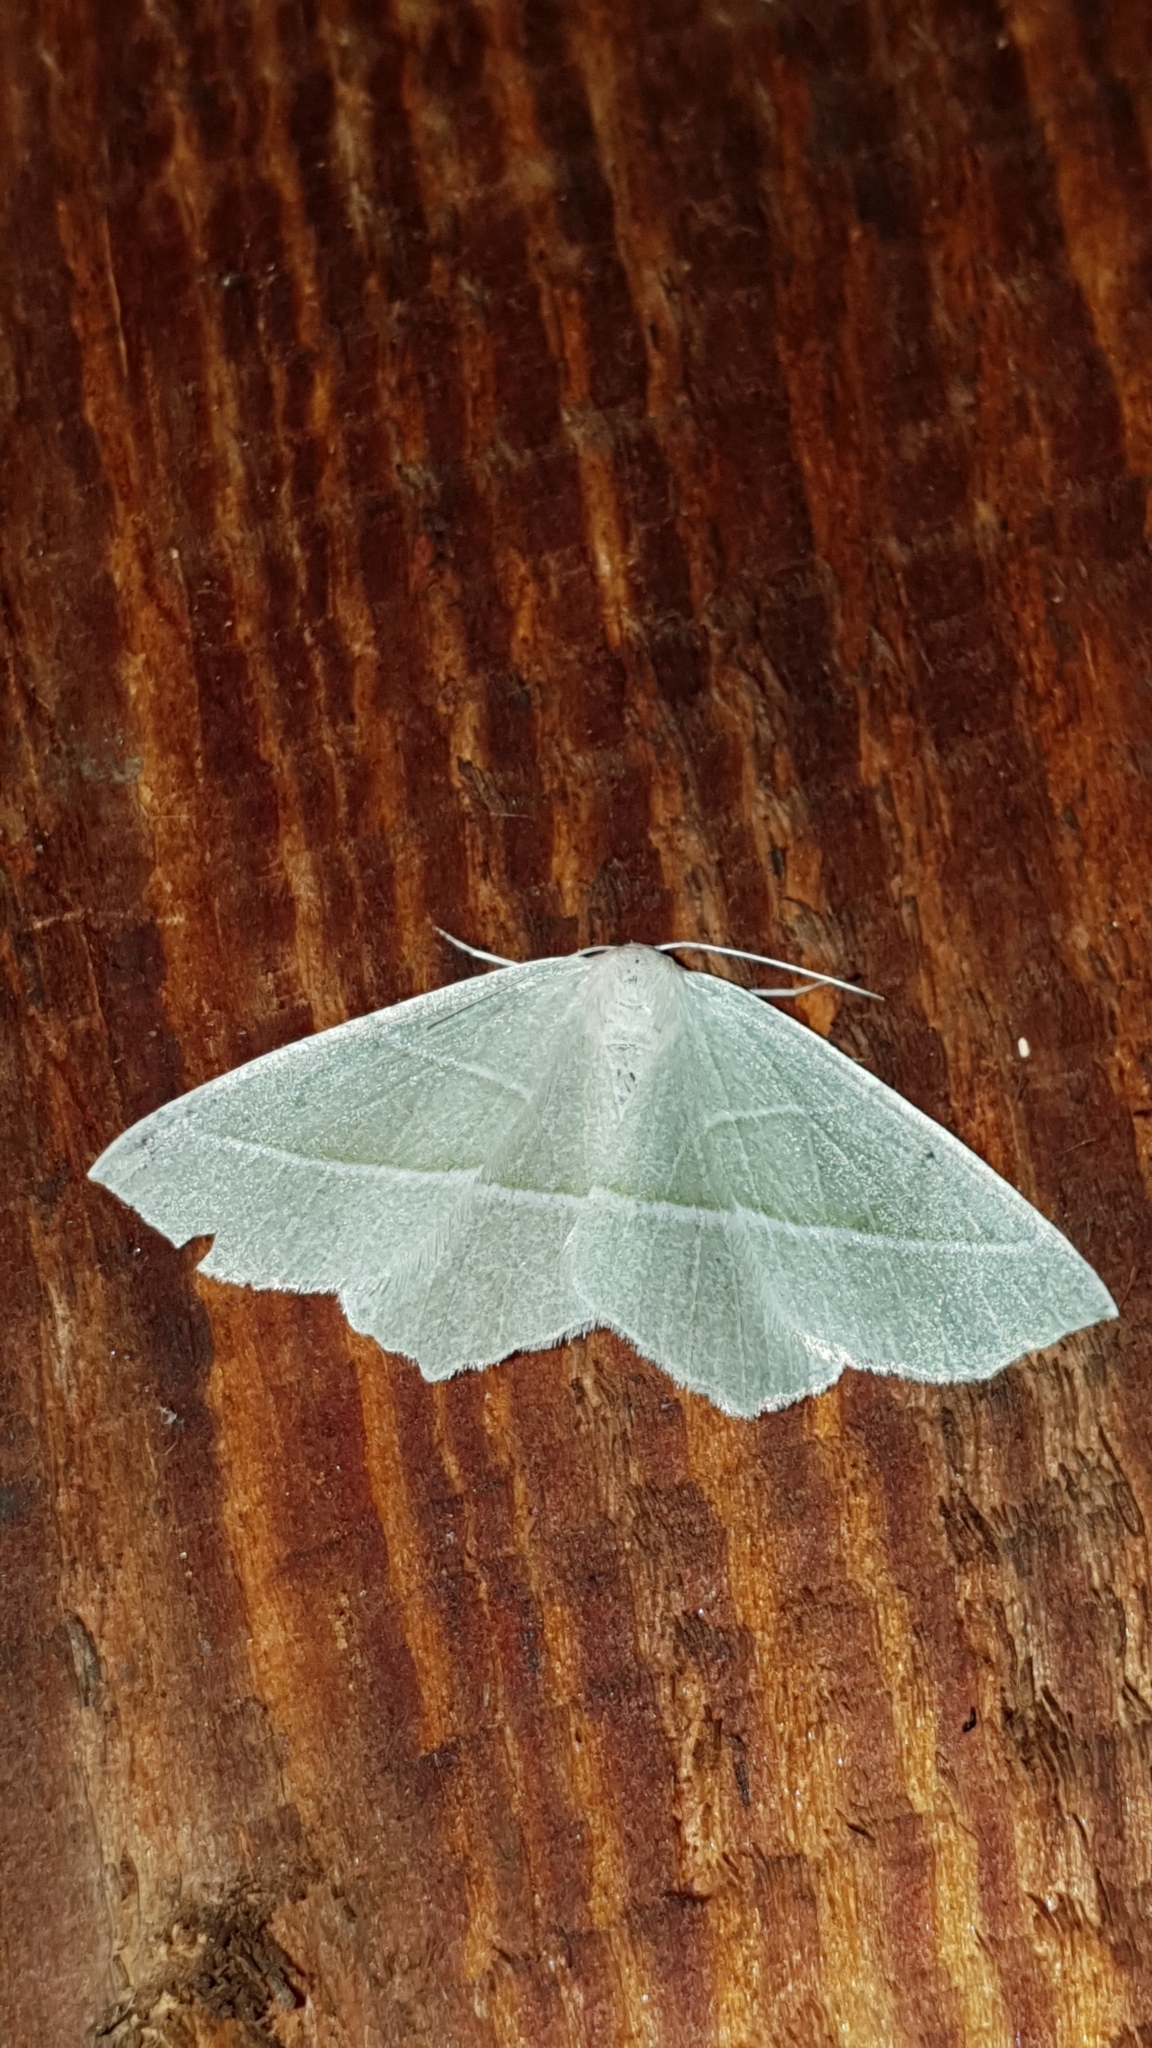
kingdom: Animalia
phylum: Arthropoda
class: Insecta
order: Lepidoptera
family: Geometridae
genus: Campaea
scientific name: Campaea margaritaria
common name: Light emerald
